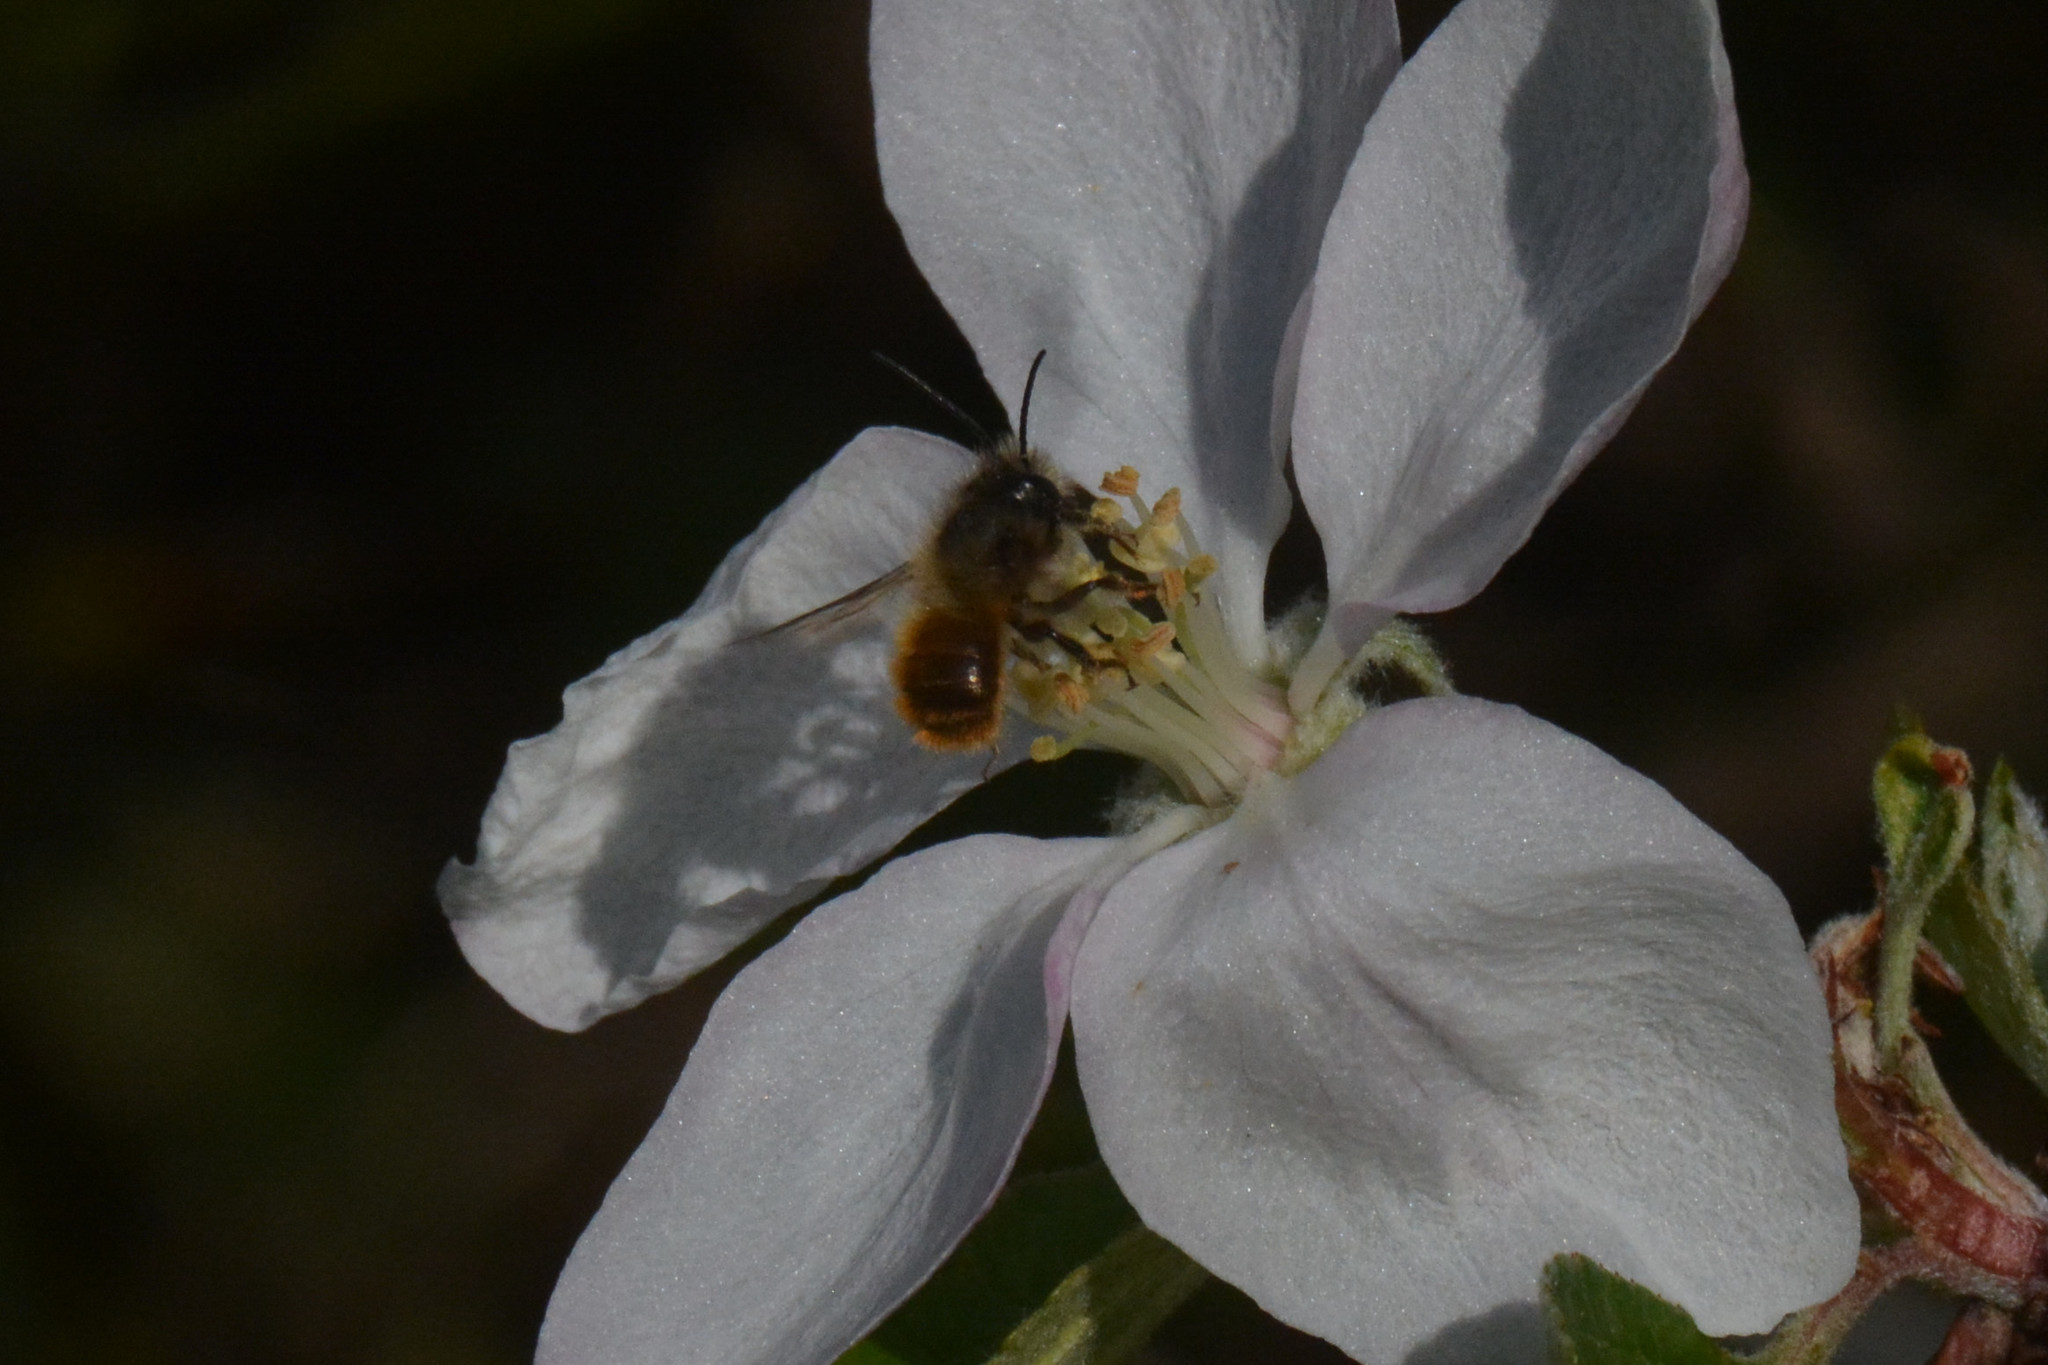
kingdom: Animalia
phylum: Arthropoda
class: Insecta
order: Hymenoptera
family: Megachilidae
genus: Osmia
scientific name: Osmia bicornis
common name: Red mason bee
